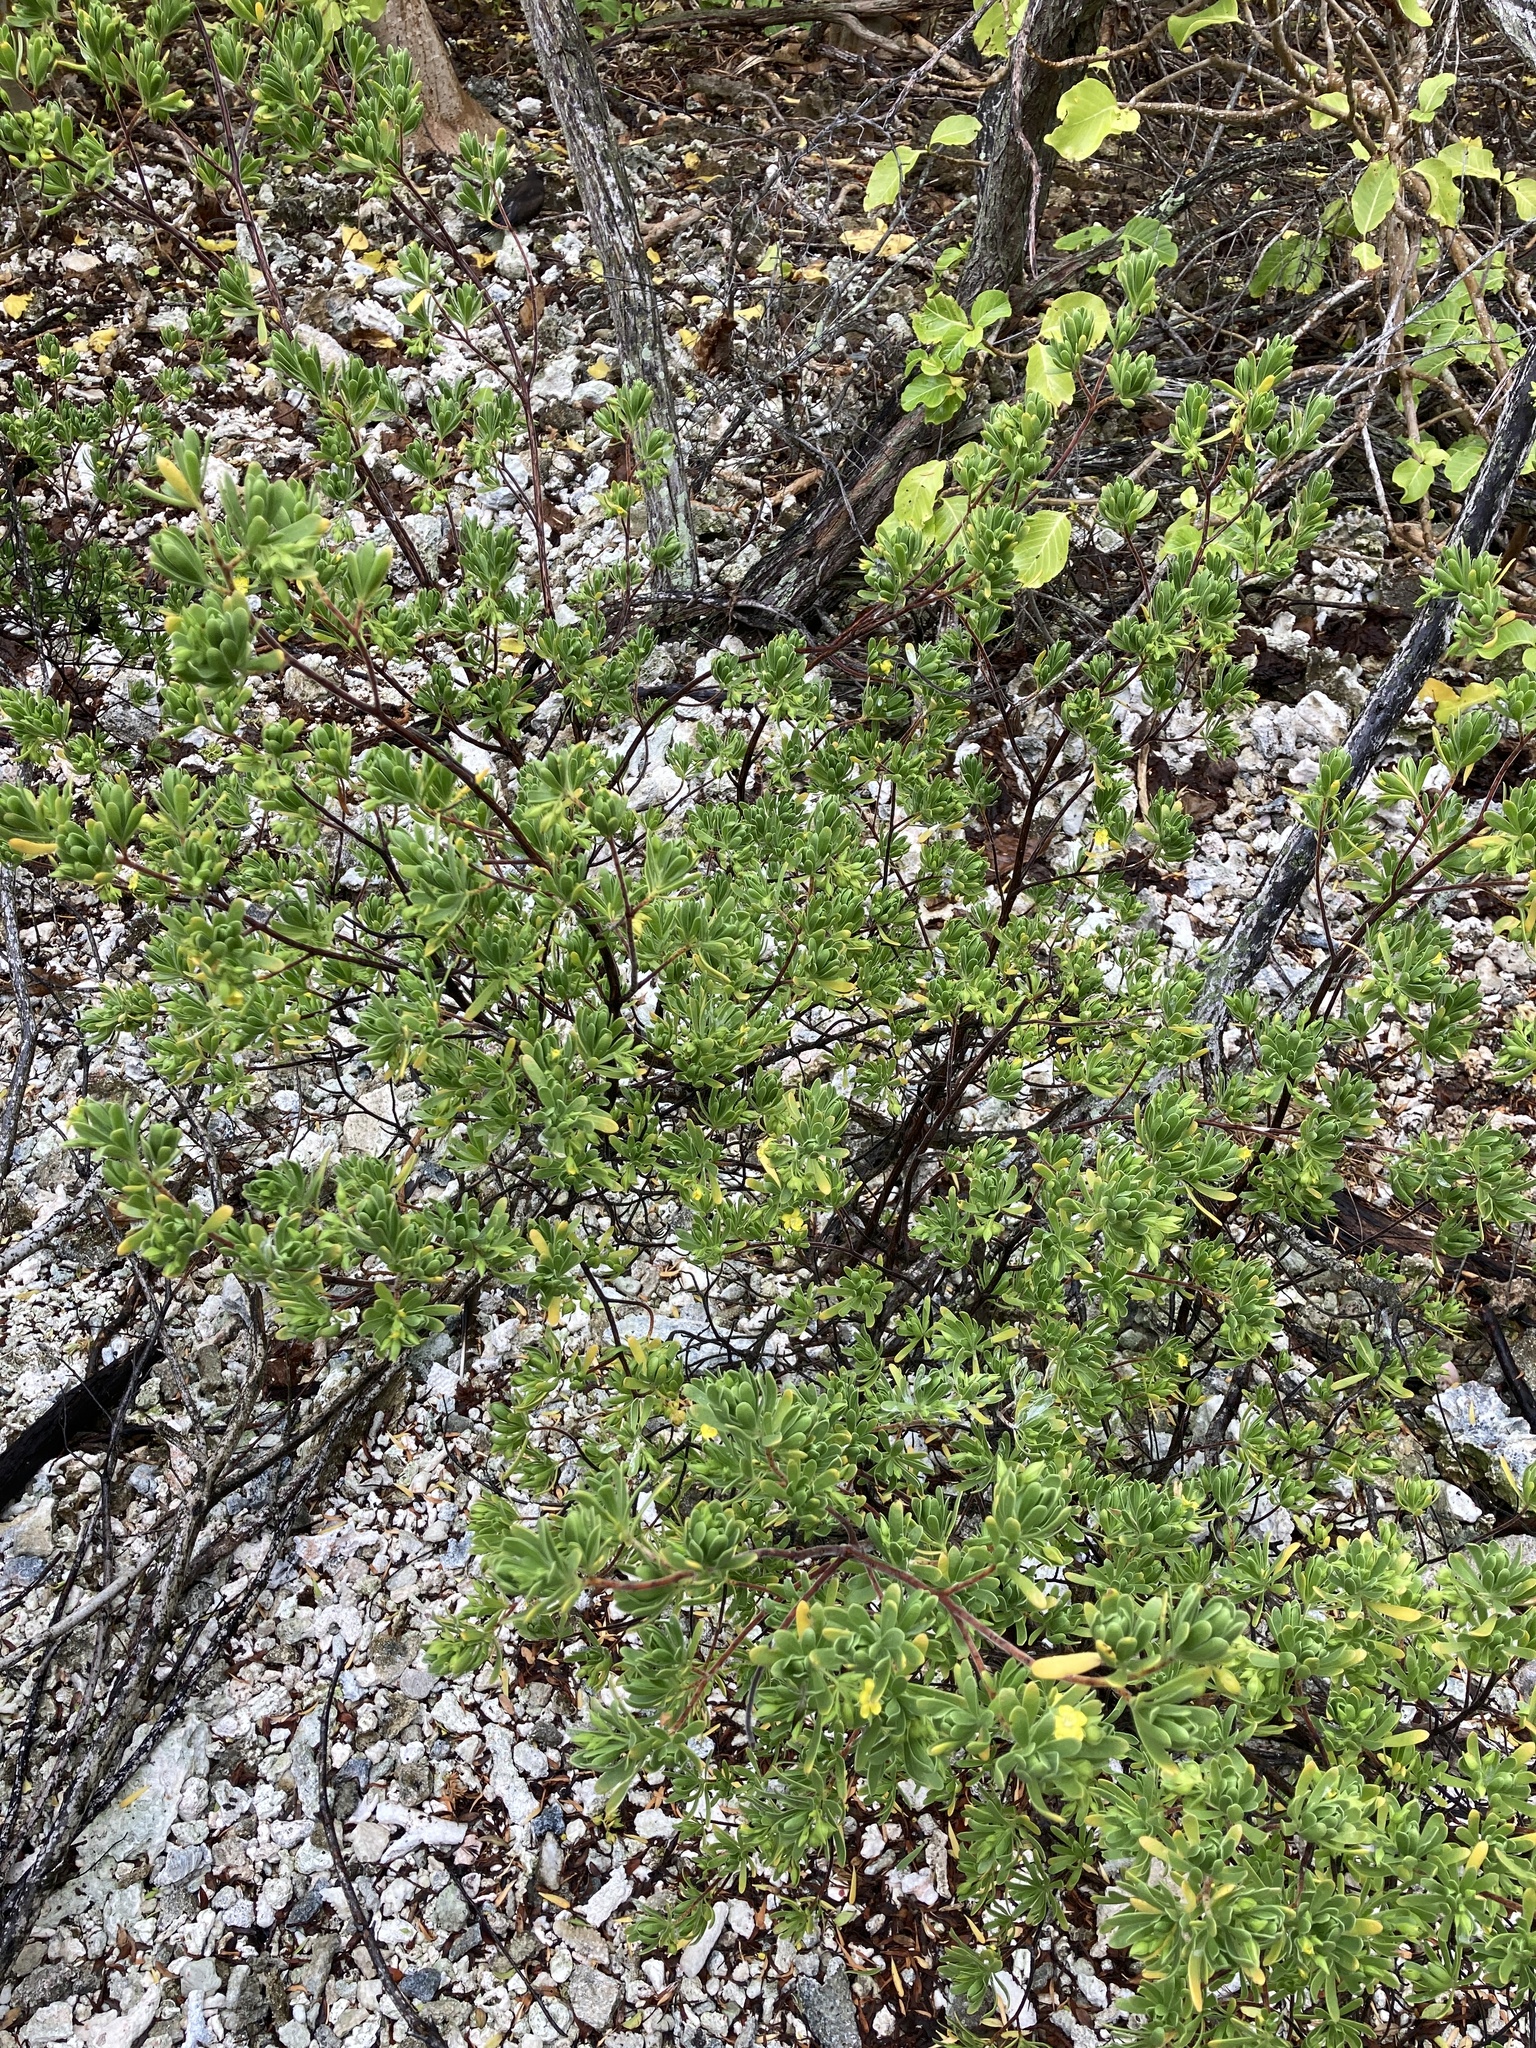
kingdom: Plantae
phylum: Tracheophyta
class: Magnoliopsida
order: Fabales
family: Surianaceae
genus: Suriana
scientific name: Suriana maritima
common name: Bay-cedar
